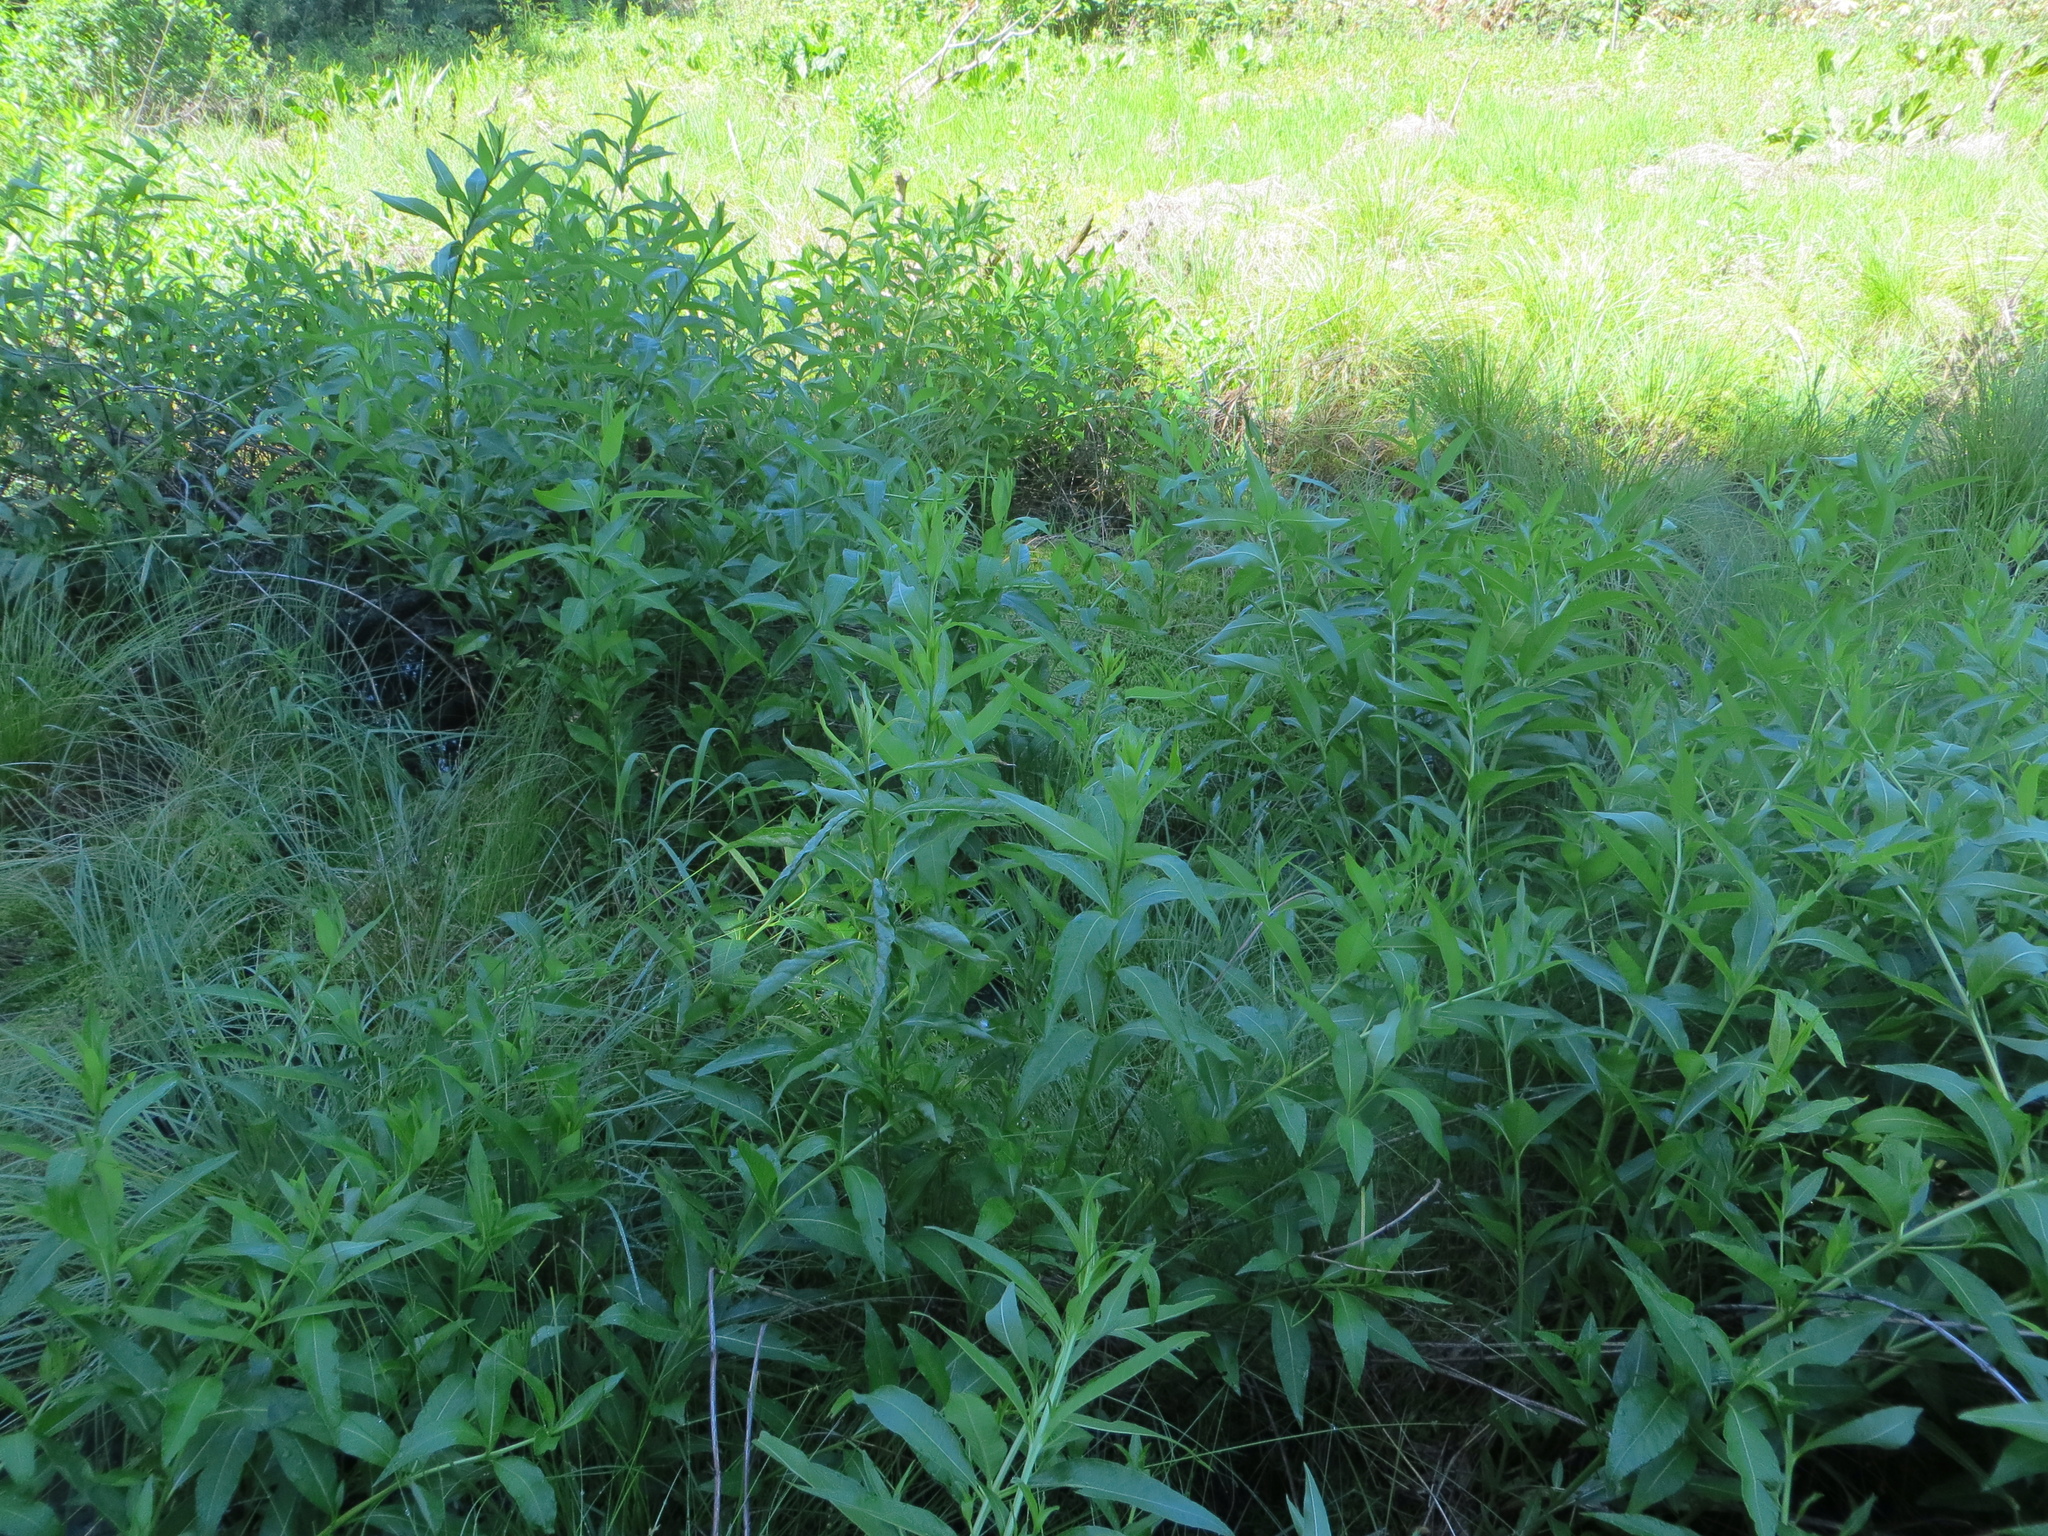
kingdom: Plantae
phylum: Tracheophyta
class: Magnoliopsida
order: Myrtales
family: Lythraceae
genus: Decodon
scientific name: Decodon verticillatus
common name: Hairy swamp loosestrife
